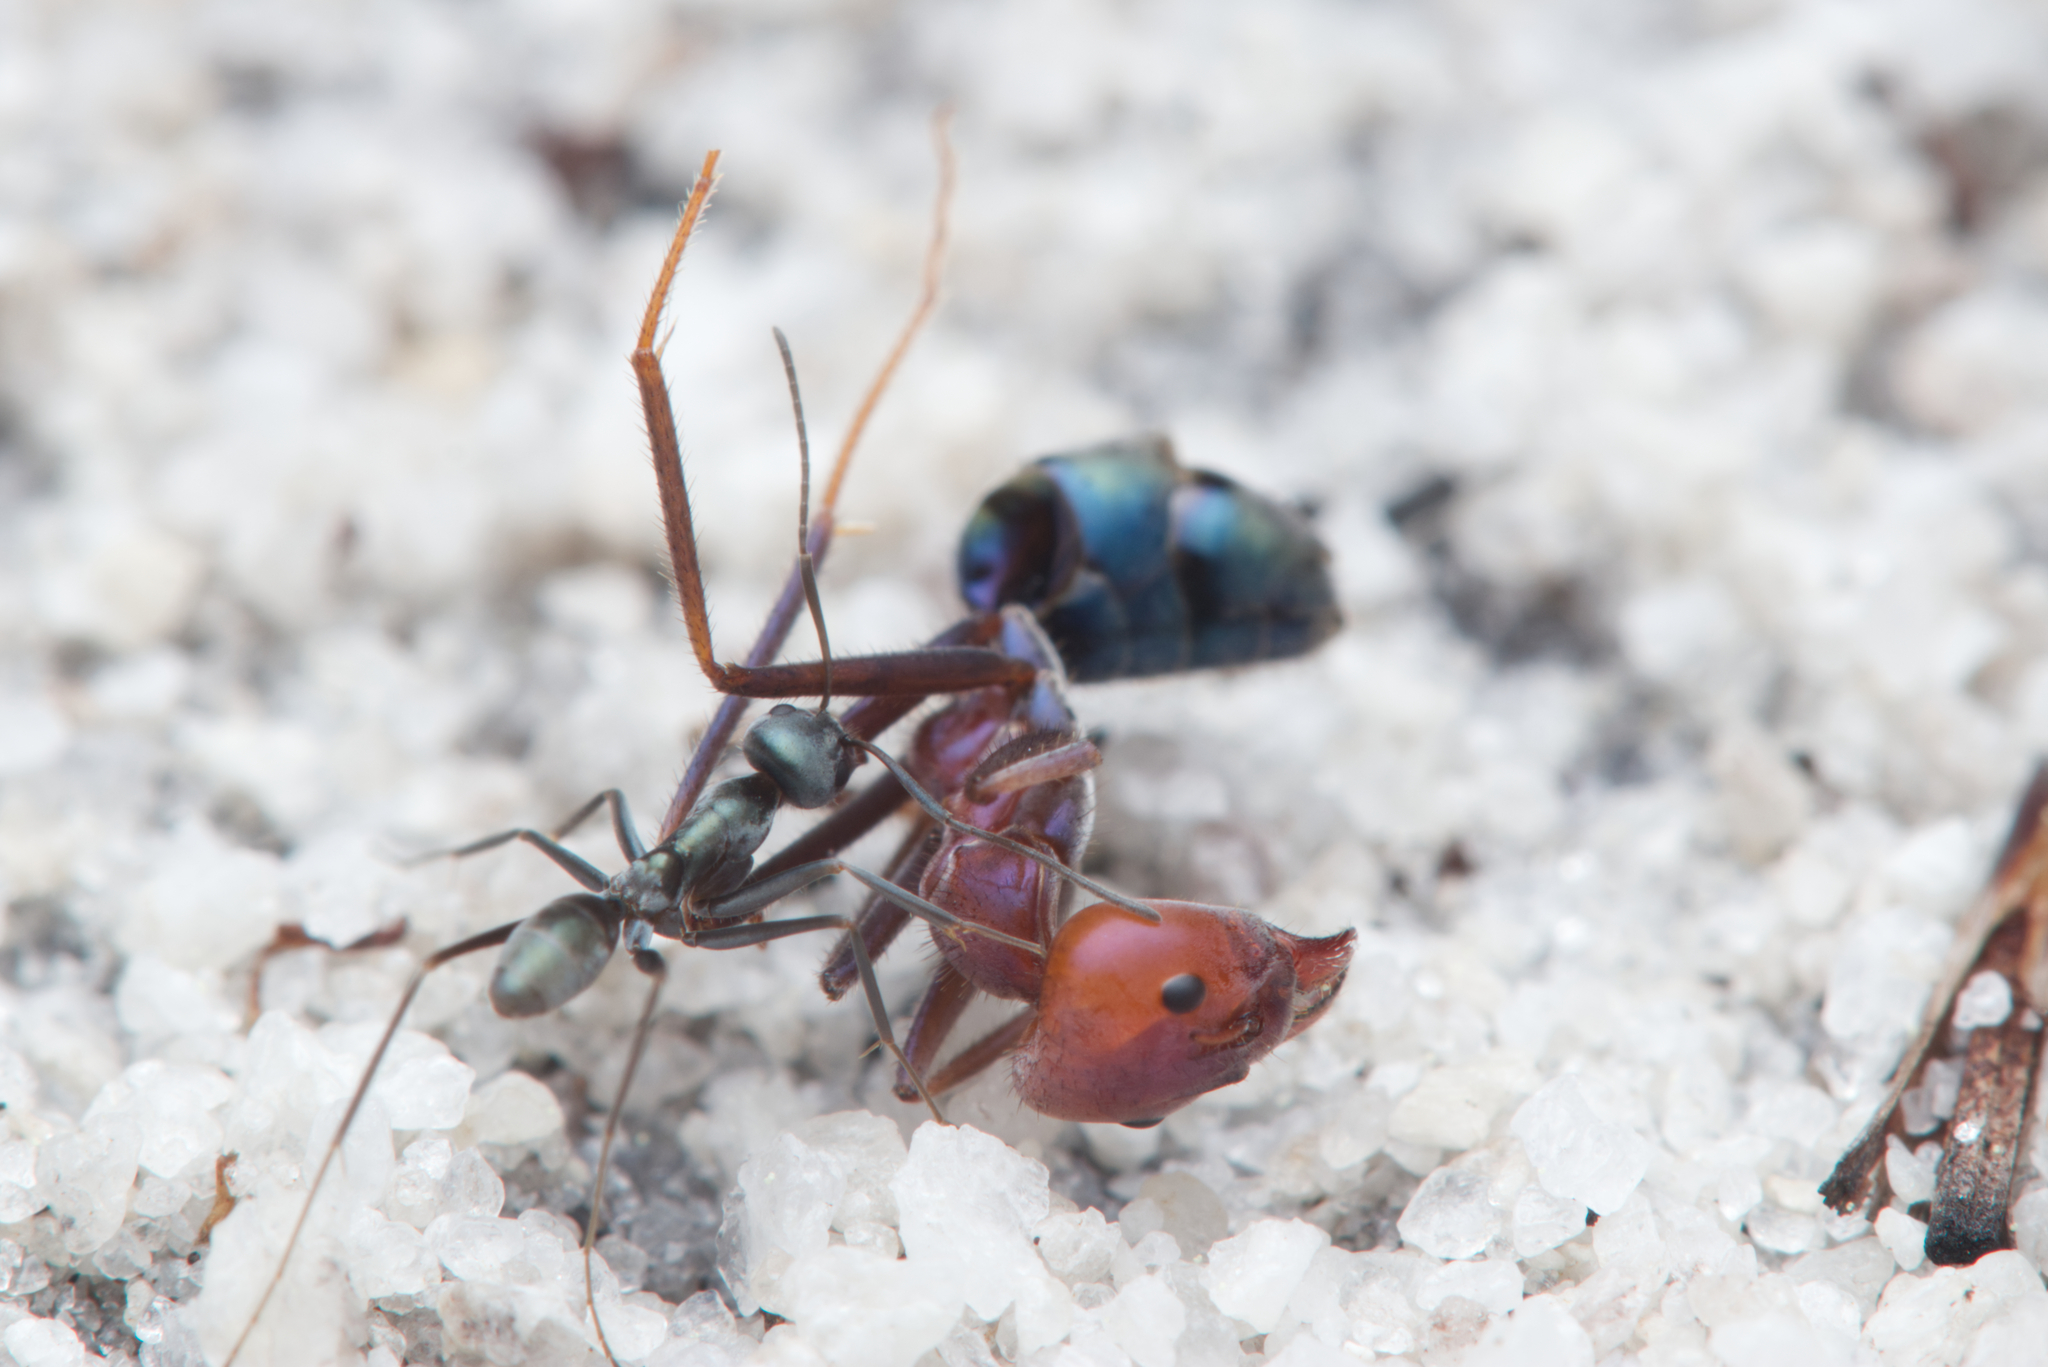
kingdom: Animalia
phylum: Arthropoda
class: Insecta
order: Hymenoptera
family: Formicidae
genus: Iridomyrmex
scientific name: Iridomyrmex bicknelli
